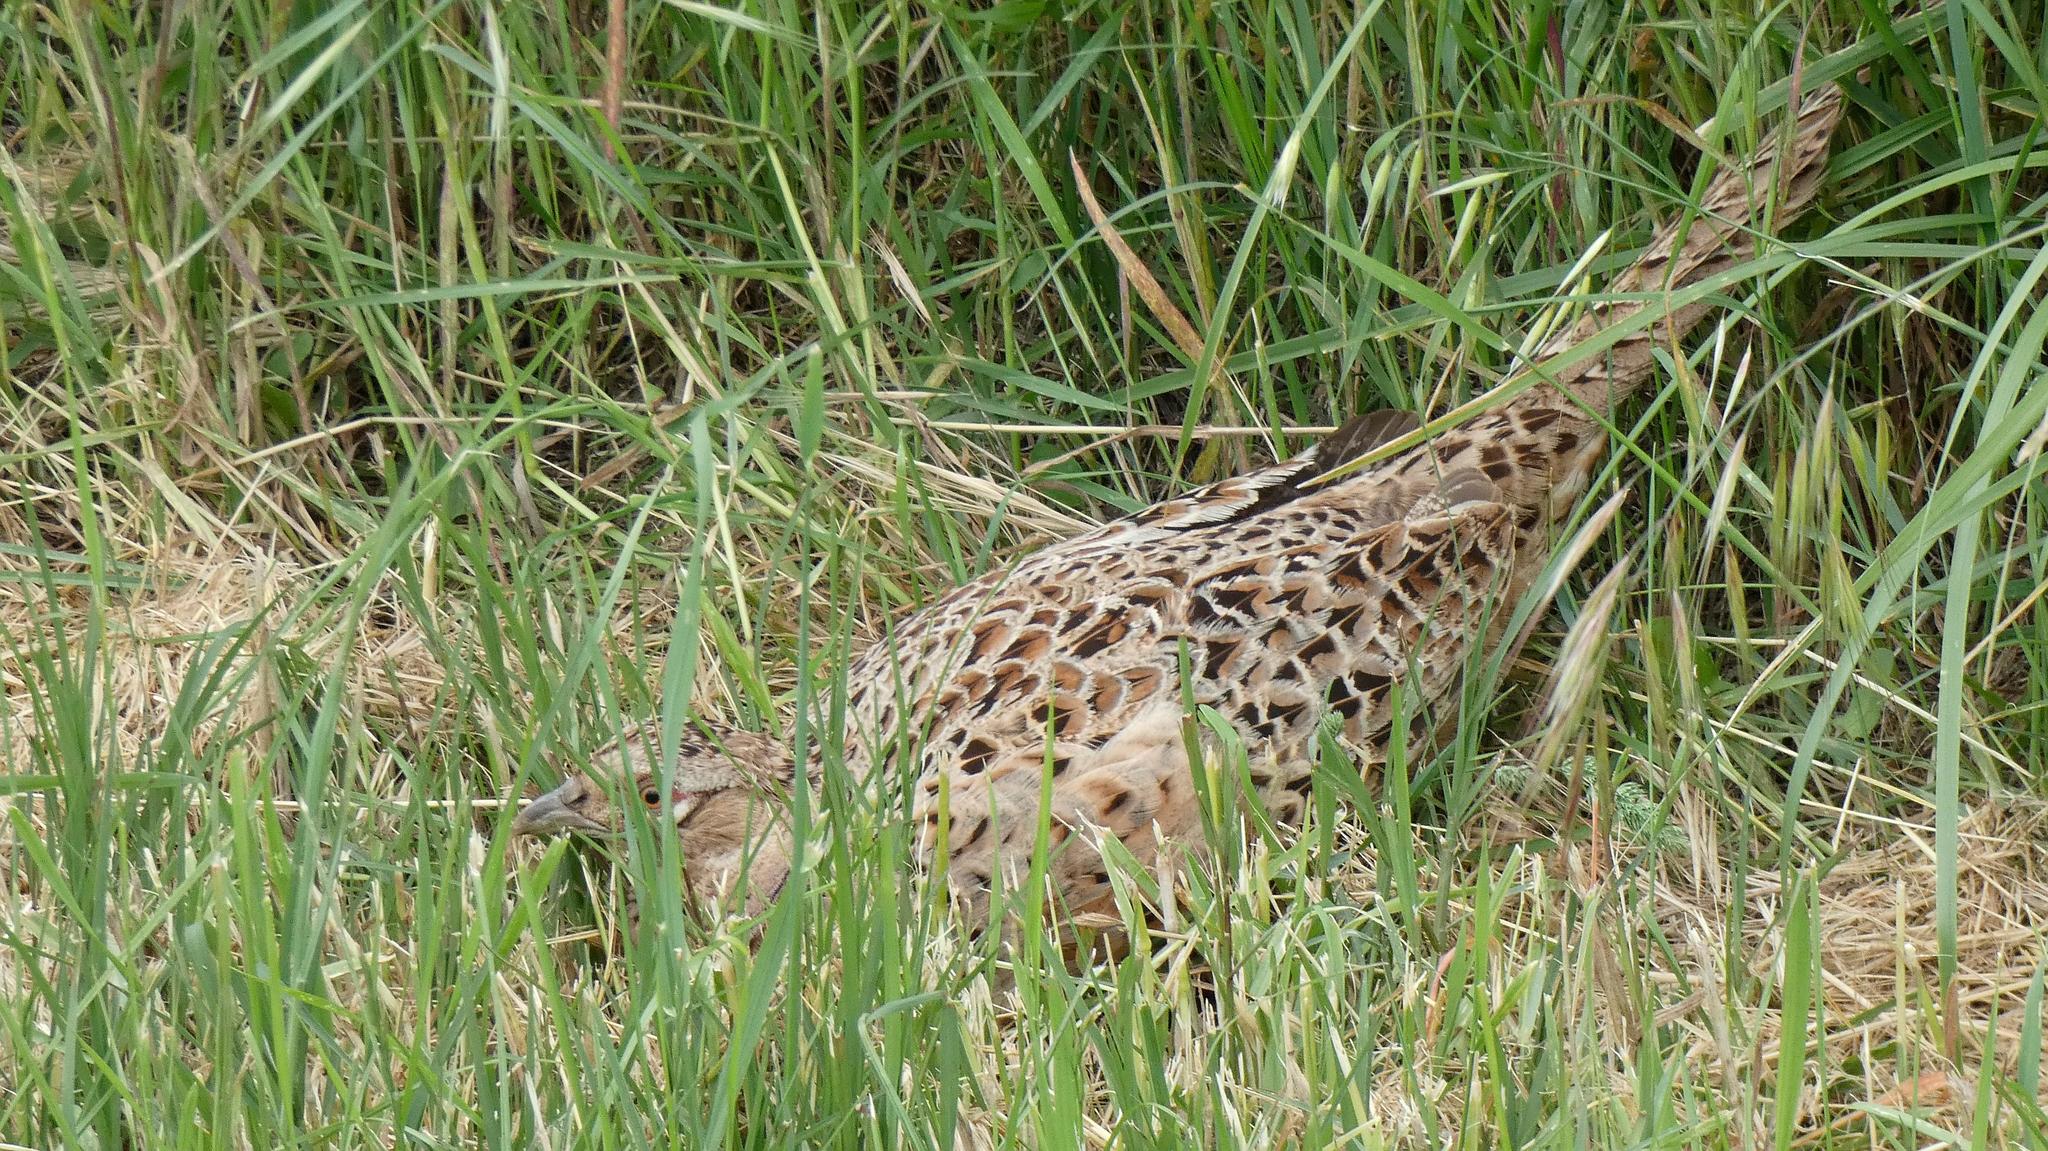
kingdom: Animalia
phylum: Chordata
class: Aves
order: Galliformes
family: Phasianidae
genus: Phasianus
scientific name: Phasianus colchicus
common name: Common pheasant
